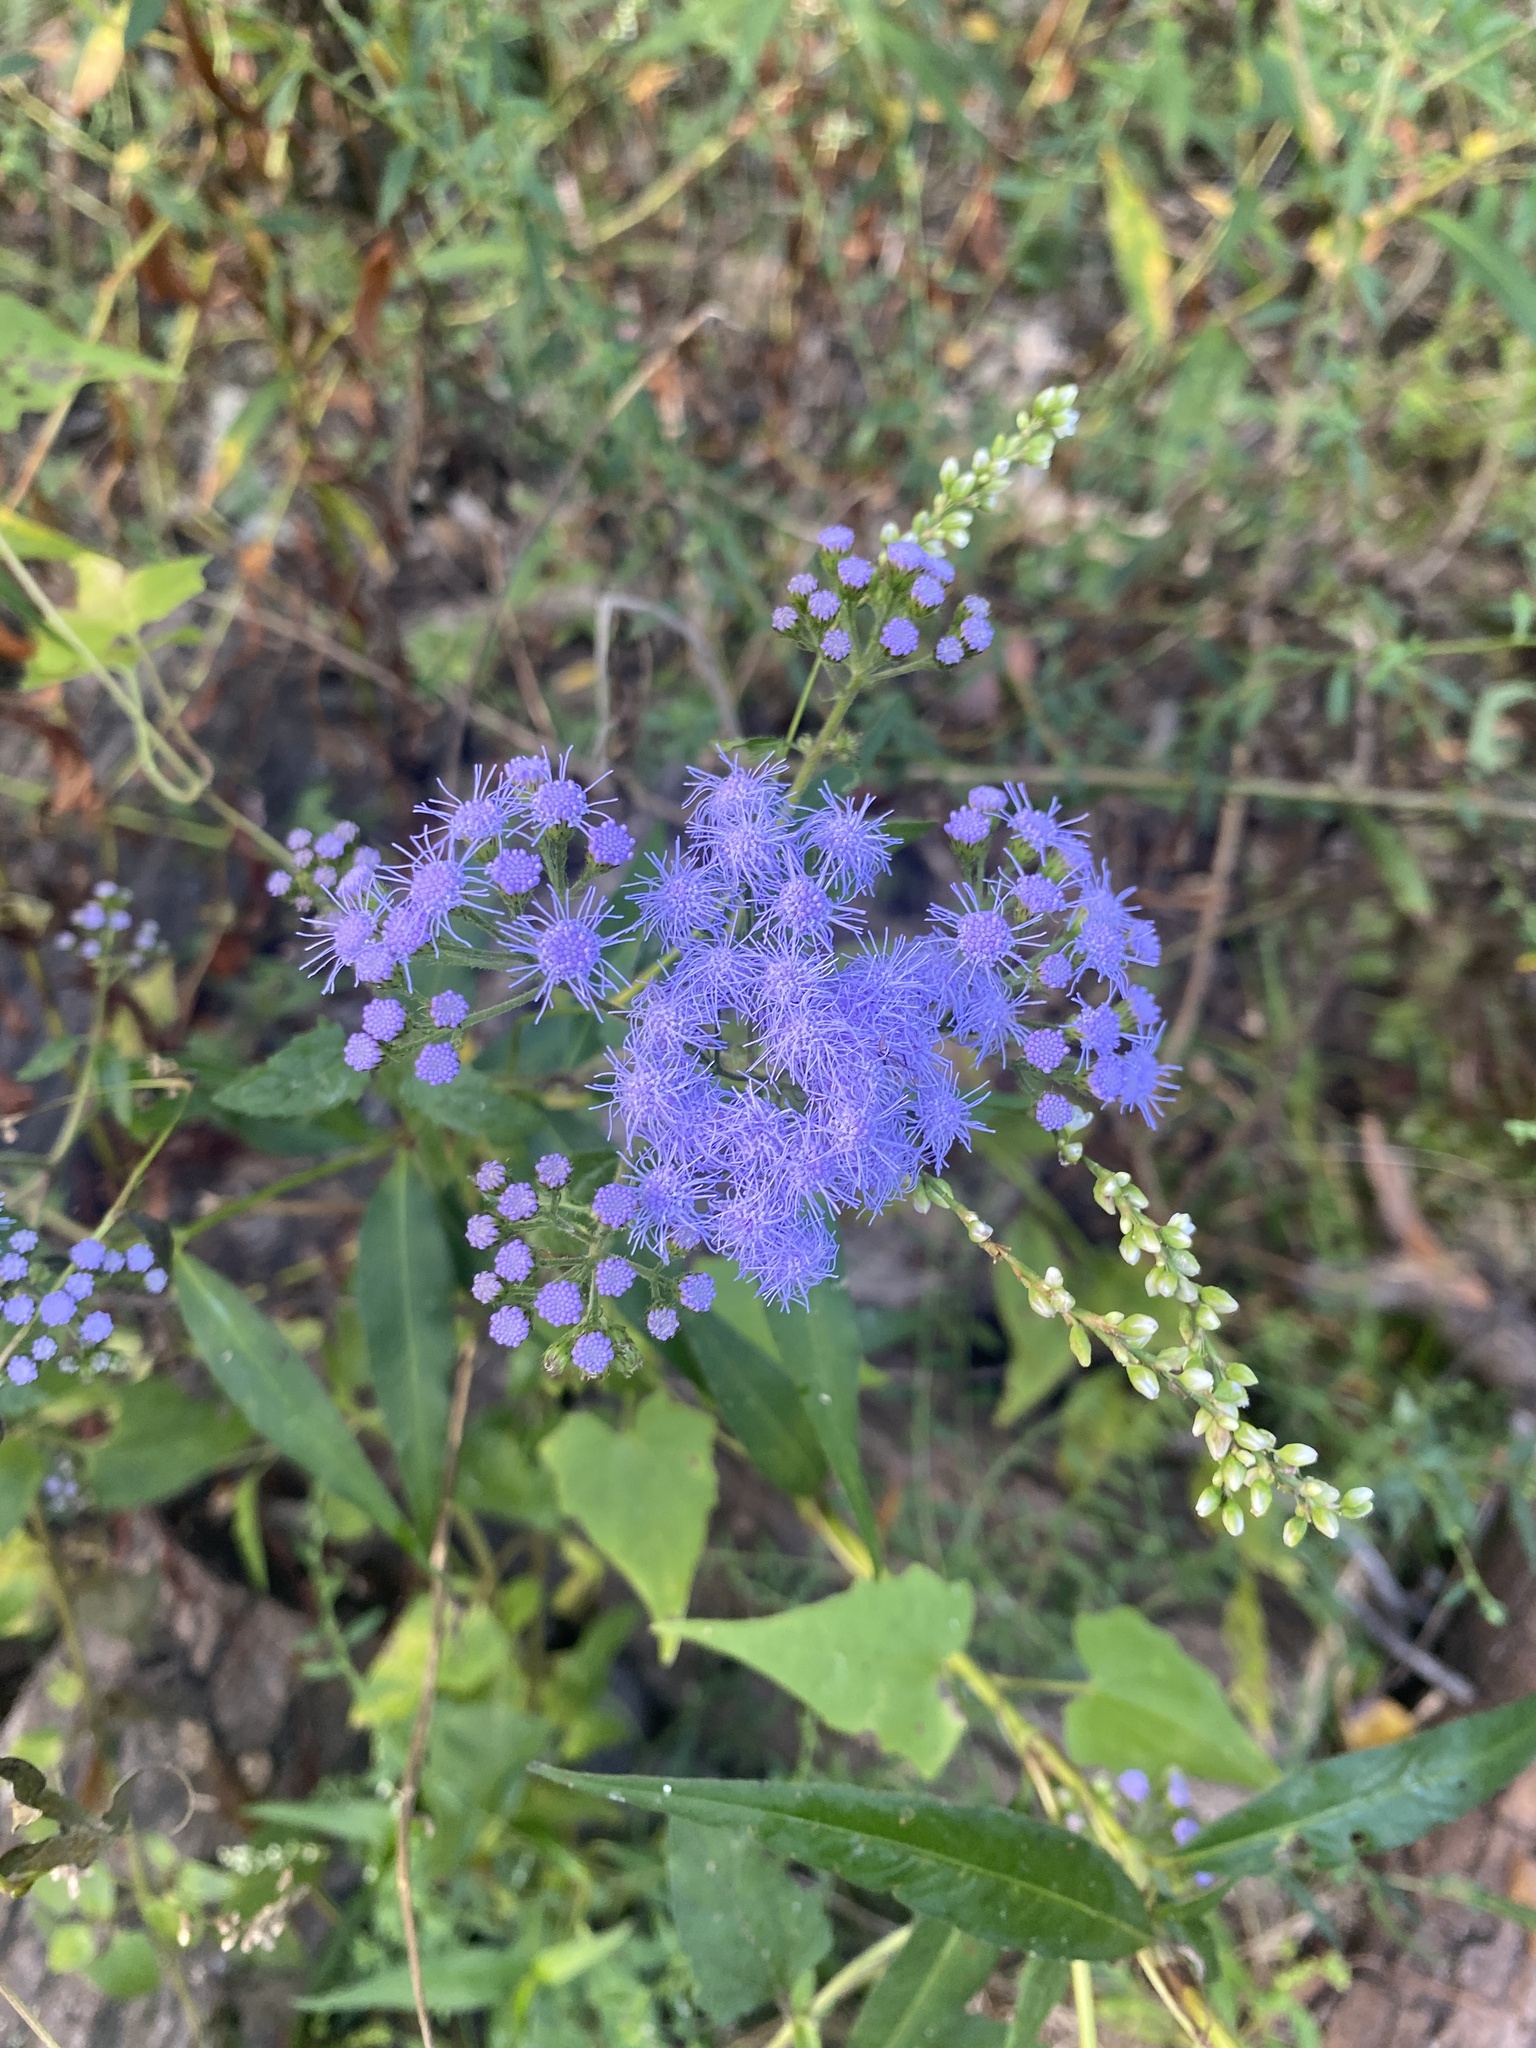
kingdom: Plantae
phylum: Tracheophyta
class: Magnoliopsida
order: Asterales
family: Asteraceae
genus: Conoclinium
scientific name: Conoclinium coelestinum
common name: Blue mistflower
